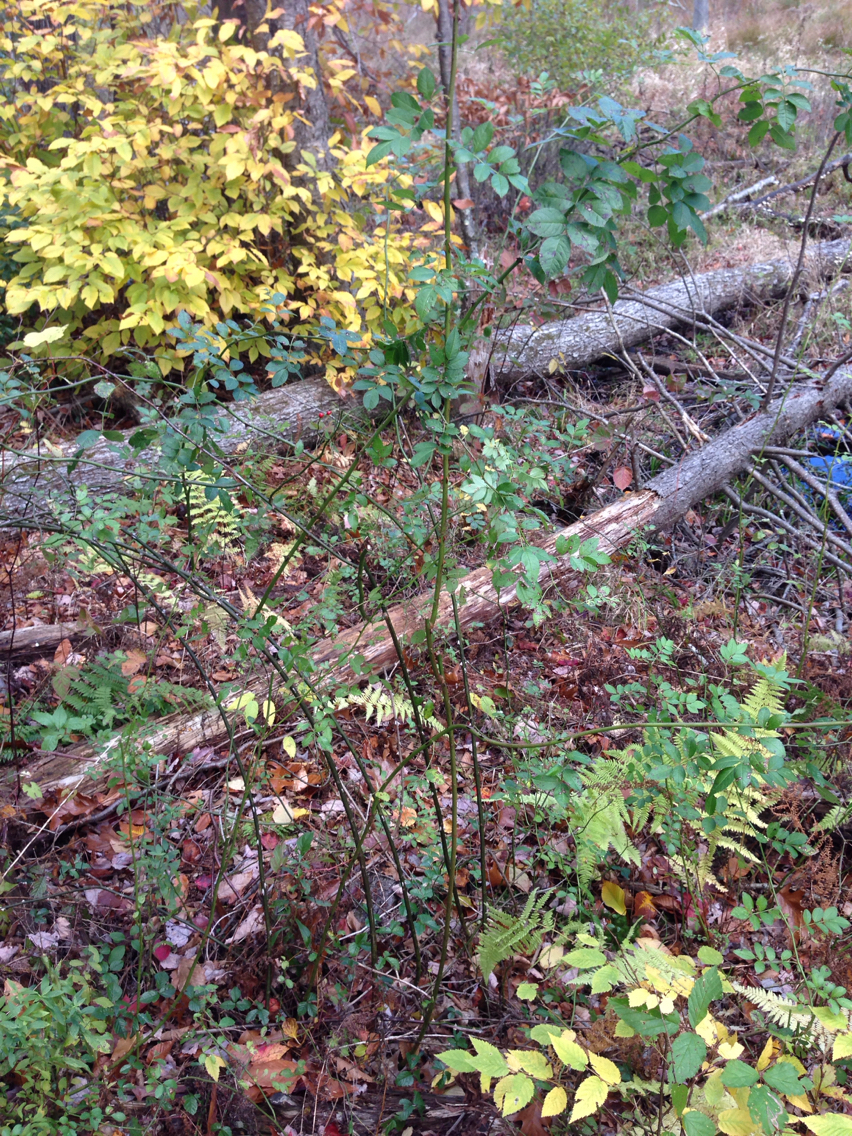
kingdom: Plantae
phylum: Tracheophyta
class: Magnoliopsida
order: Rosales
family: Rosaceae
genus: Rosa
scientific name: Rosa multiflora
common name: Multiflora rose
